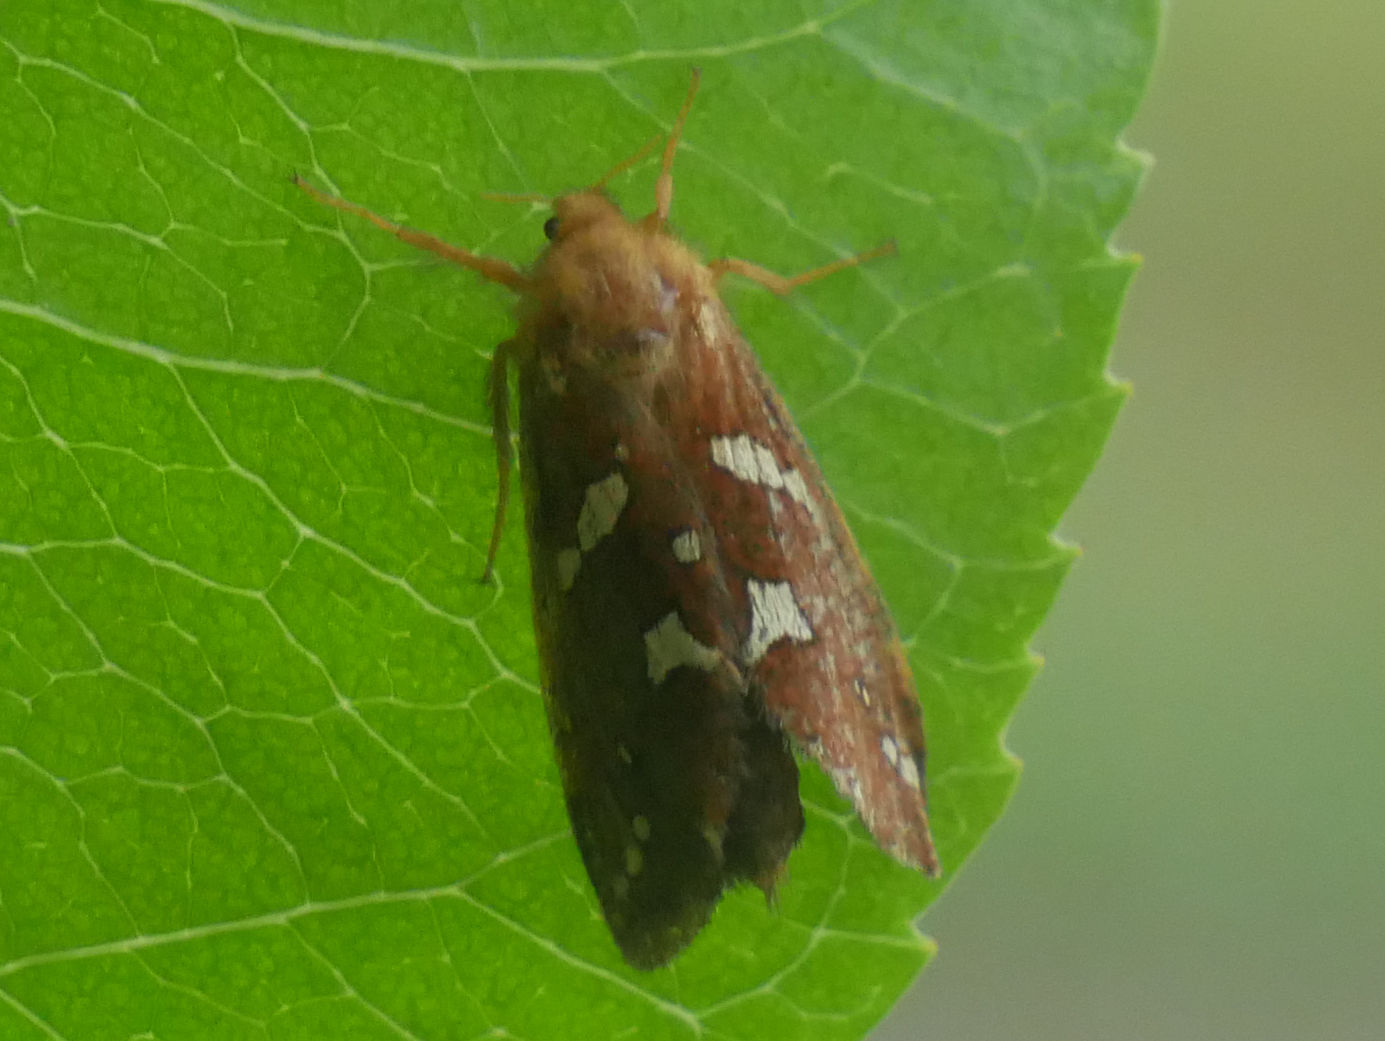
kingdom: Animalia
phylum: Arthropoda
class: Insecta
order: Lepidoptera
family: Hepialidae
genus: Phymatopus
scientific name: Phymatopus hecta
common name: Gold swift
